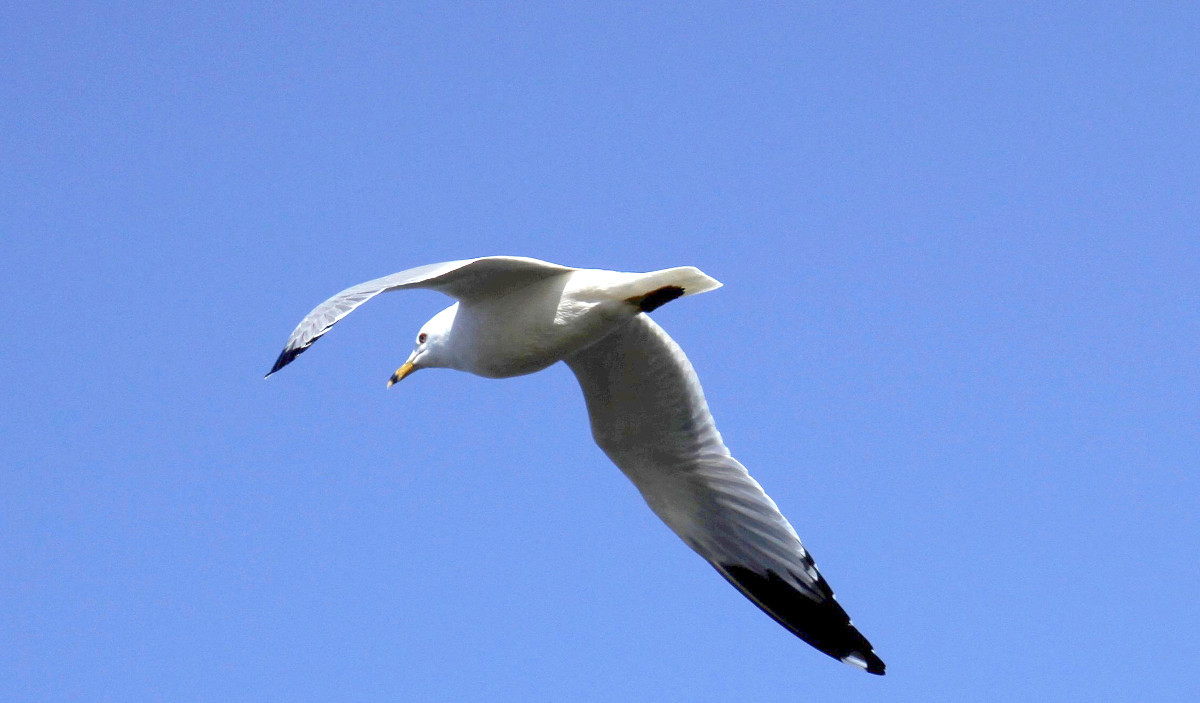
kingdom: Animalia
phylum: Chordata
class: Aves
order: Charadriiformes
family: Laridae
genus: Larus
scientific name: Larus delawarensis
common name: Ring-billed gull
